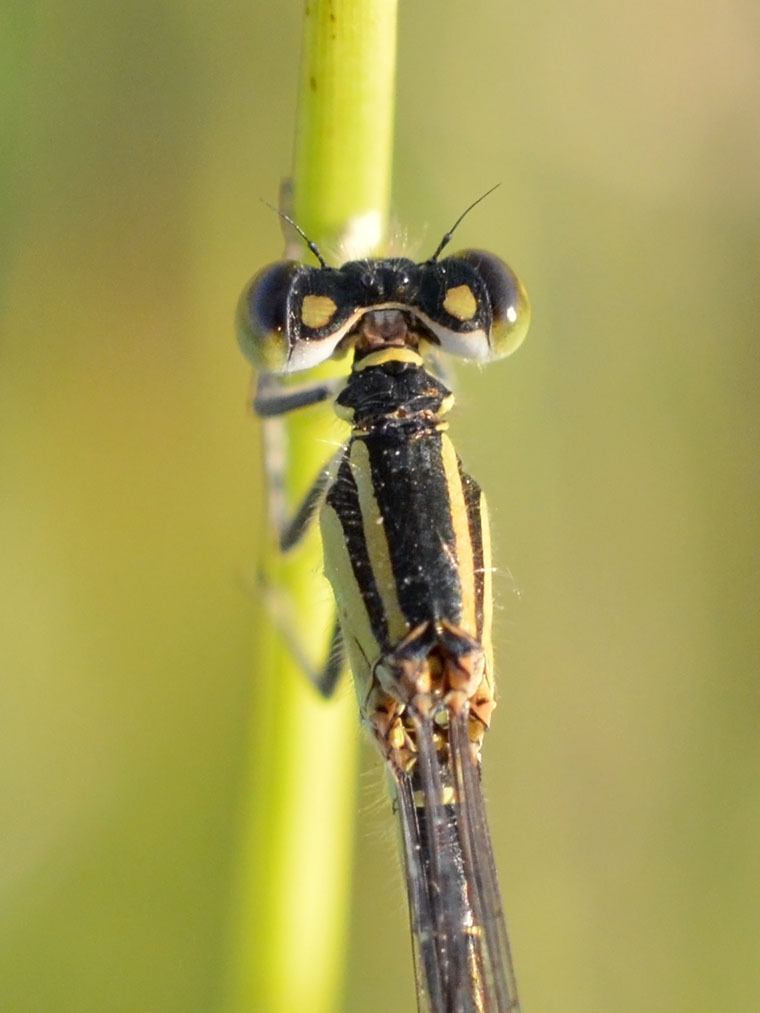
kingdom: Animalia
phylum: Arthropoda
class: Insecta
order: Odonata
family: Coenagrionidae
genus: Ischnura
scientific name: Ischnura elegans
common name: Blue-tailed damselfly
